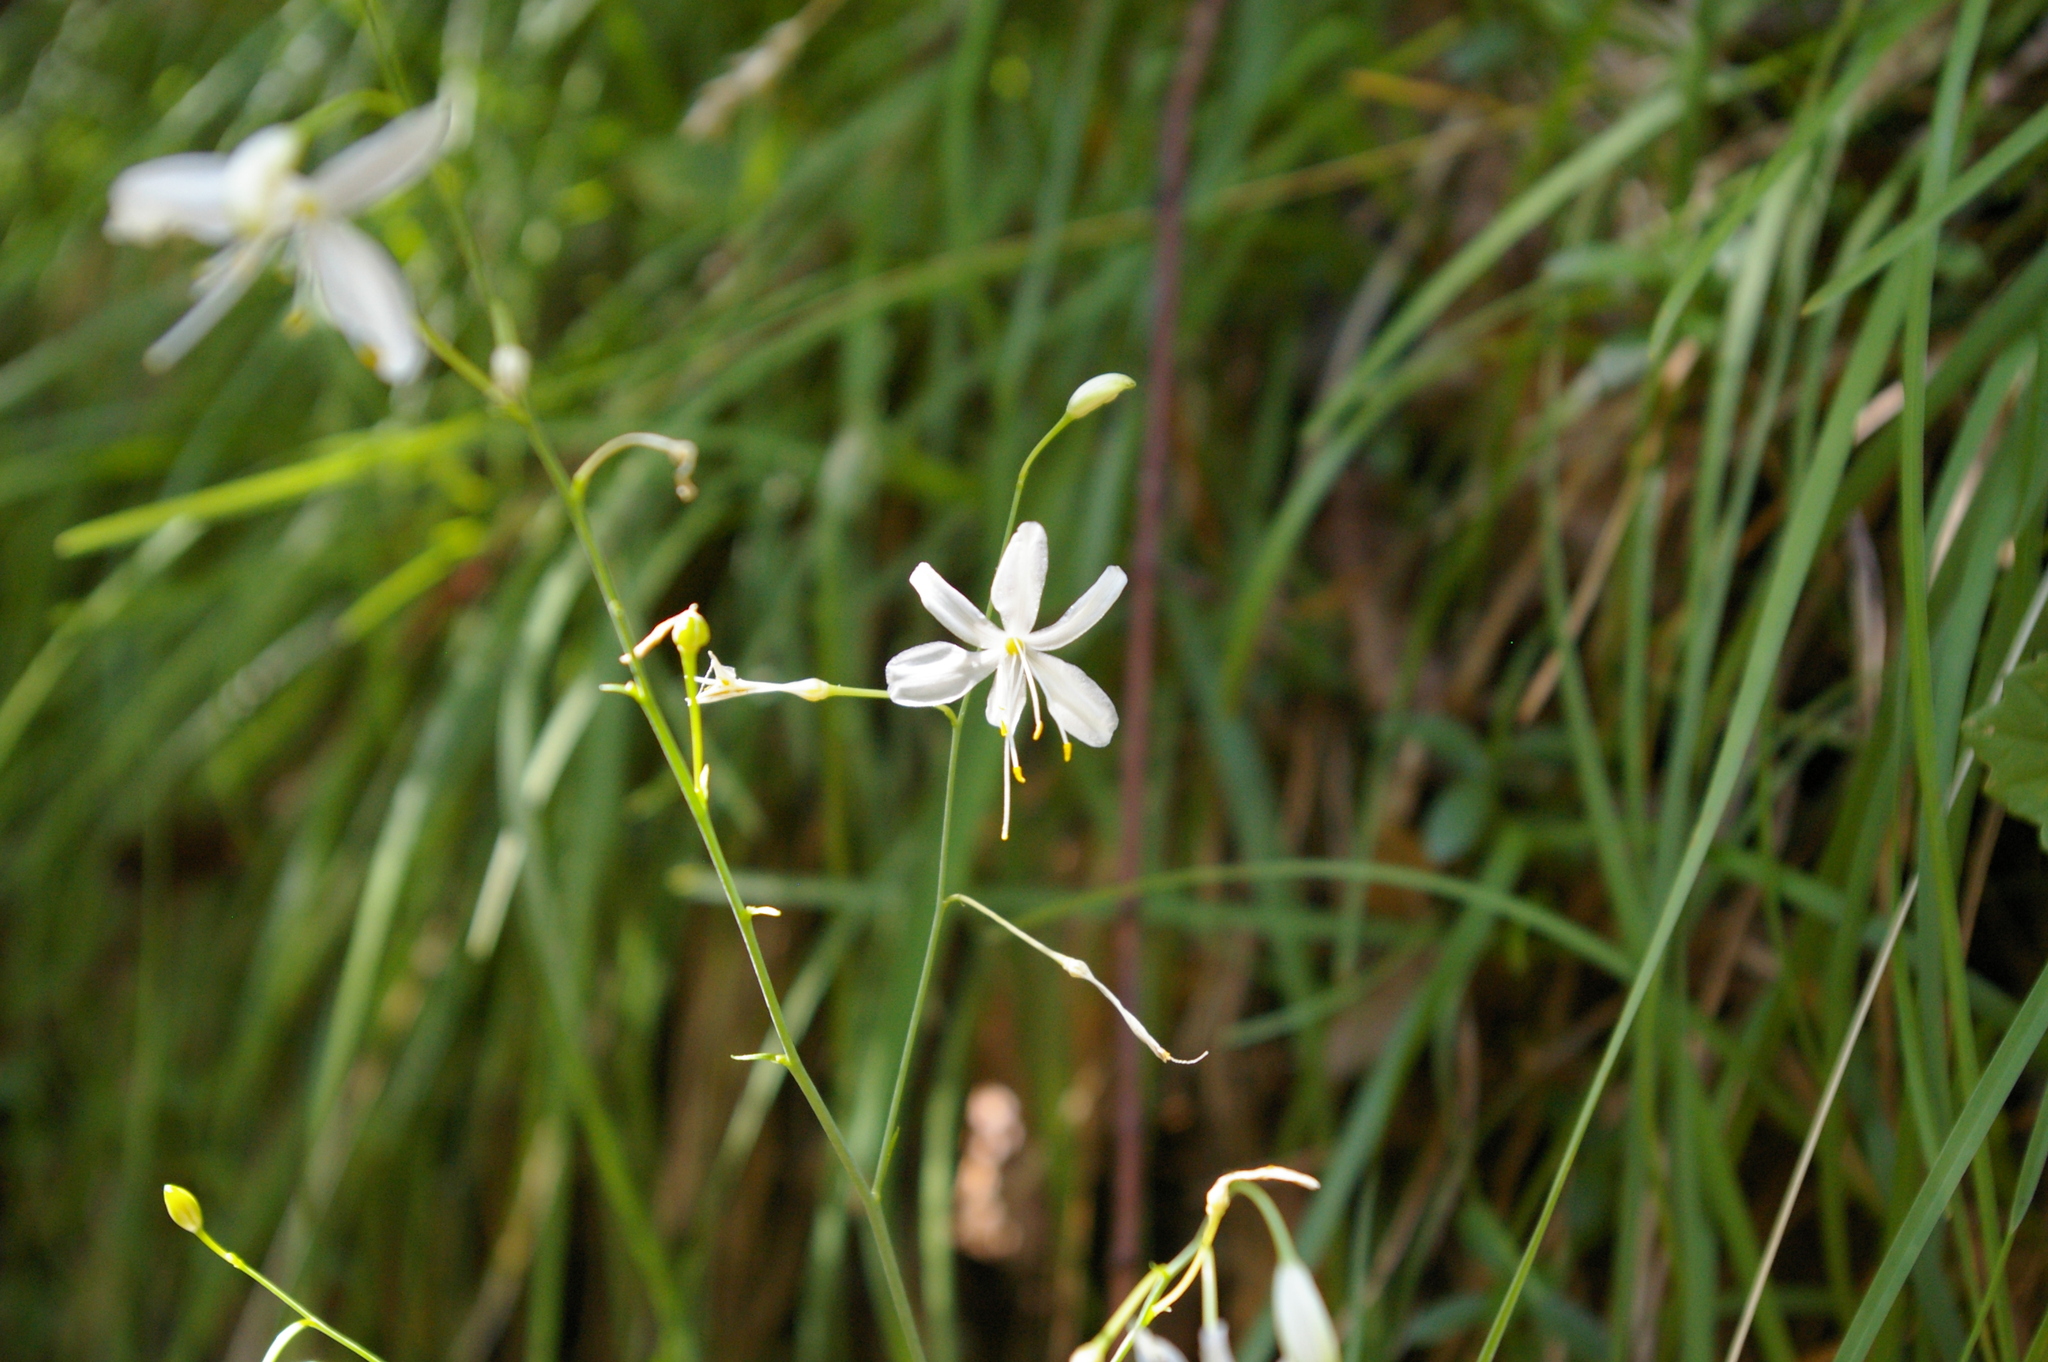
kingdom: Plantae
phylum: Tracheophyta
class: Liliopsida
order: Asparagales
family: Asparagaceae
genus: Anthericum
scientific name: Anthericum ramosum
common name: Branched st. bernard's-lily
